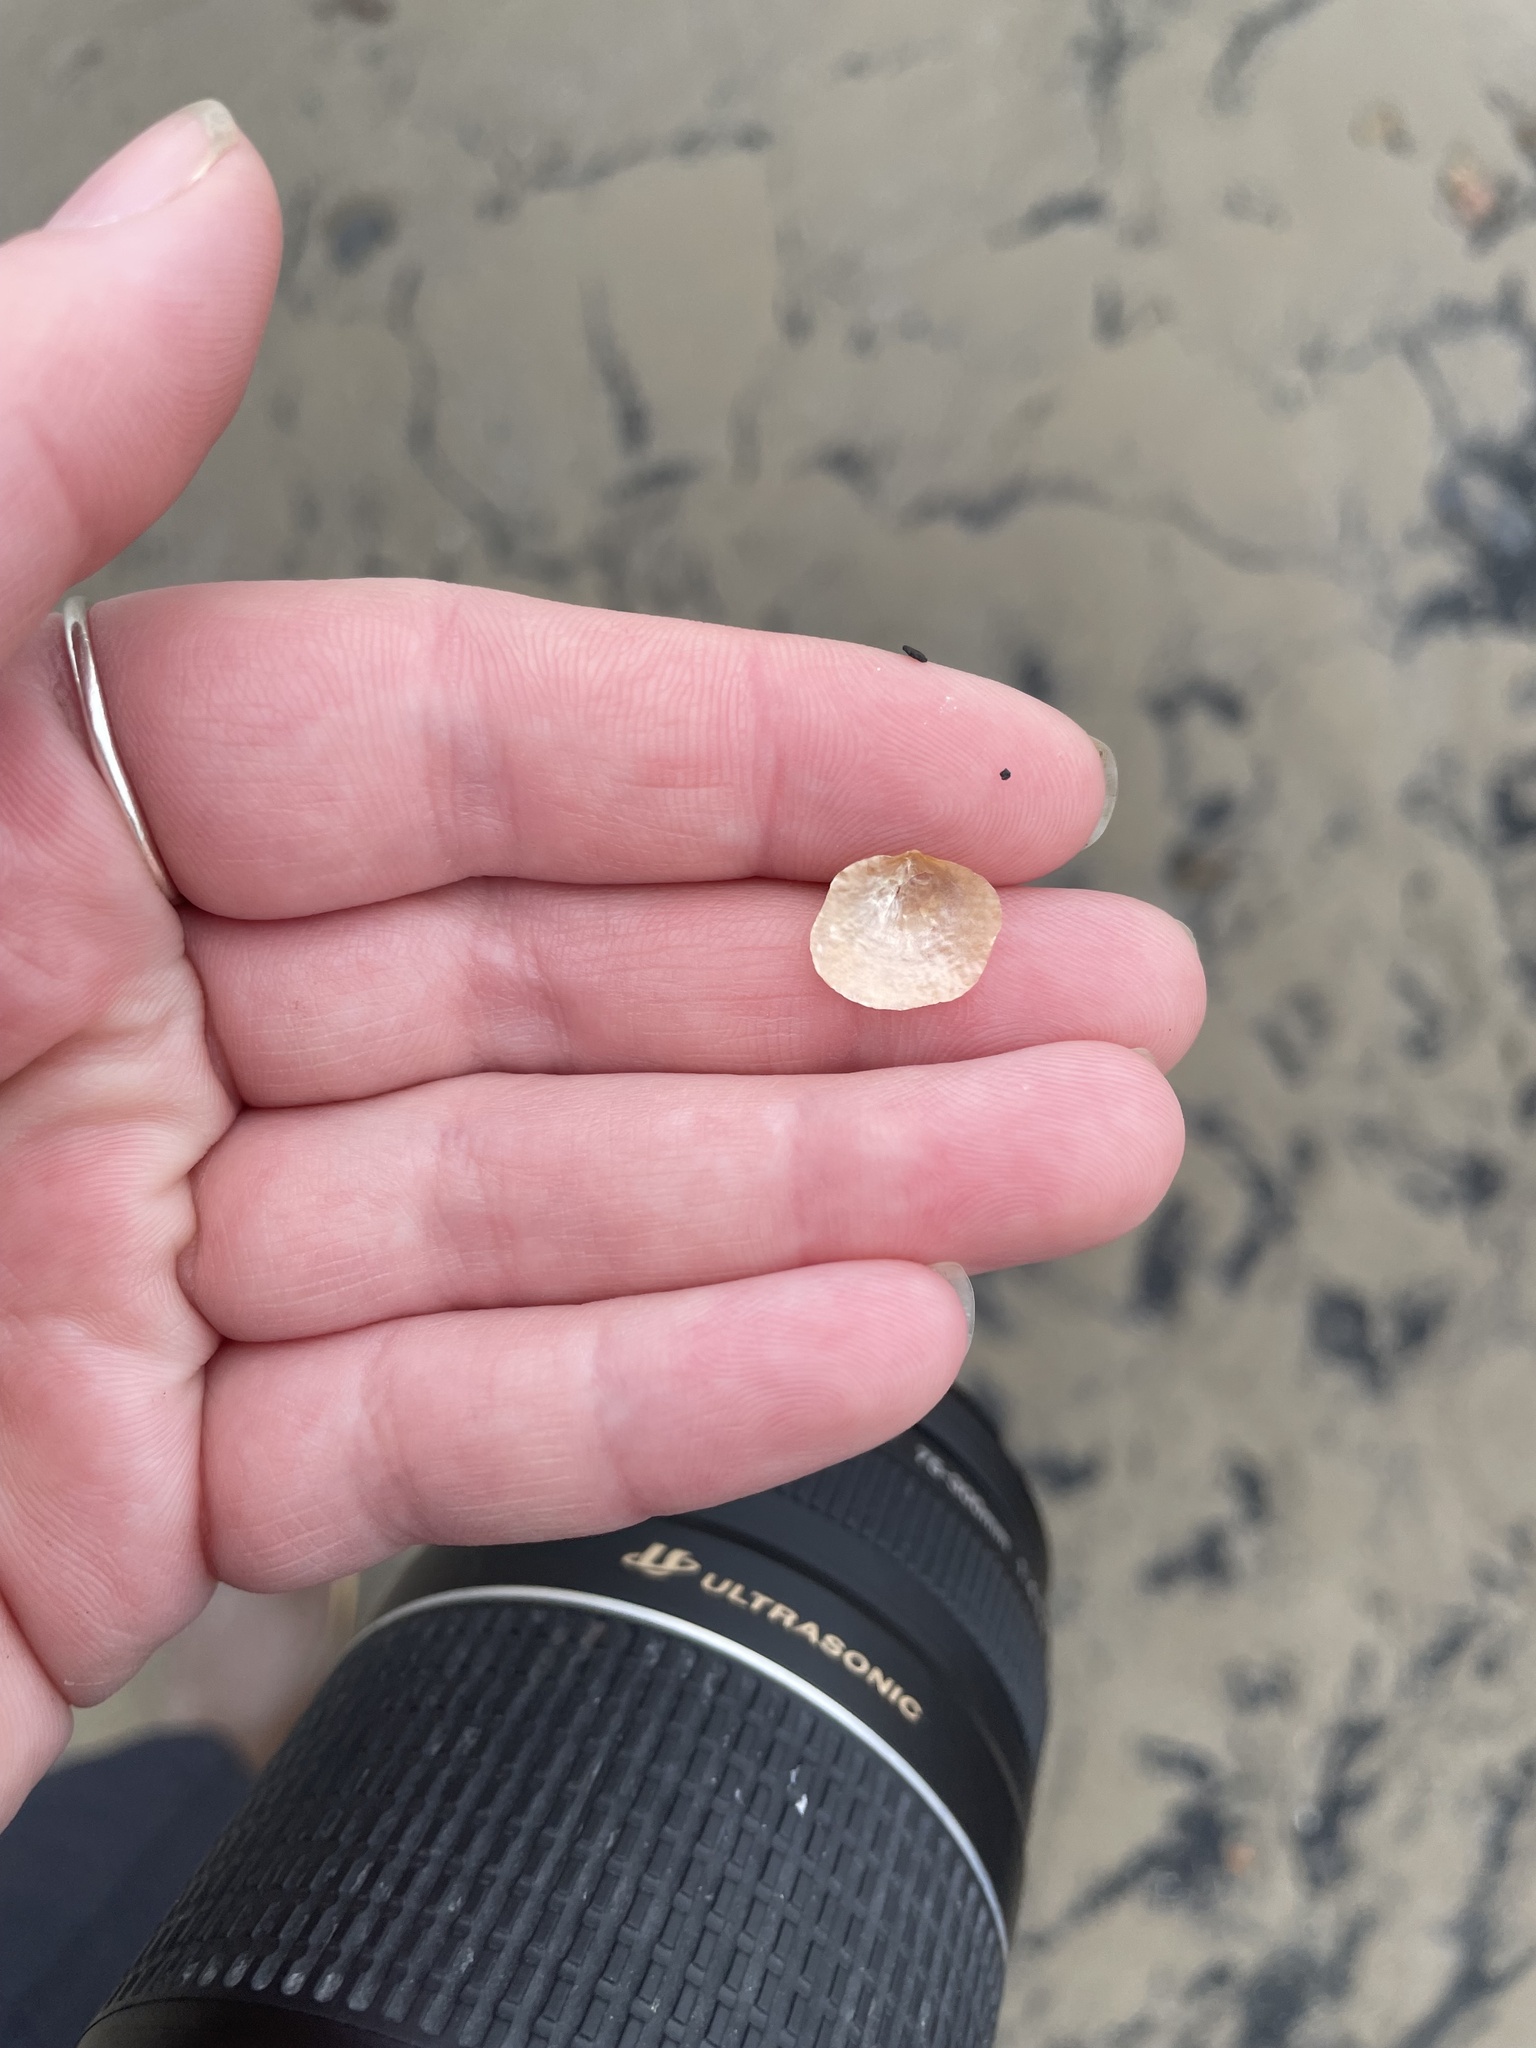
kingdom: Animalia
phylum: Mollusca
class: Bivalvia
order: Pectinida
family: Anomiidae
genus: Heteranomia
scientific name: Heteranomia squamula
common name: Prickly jingle
